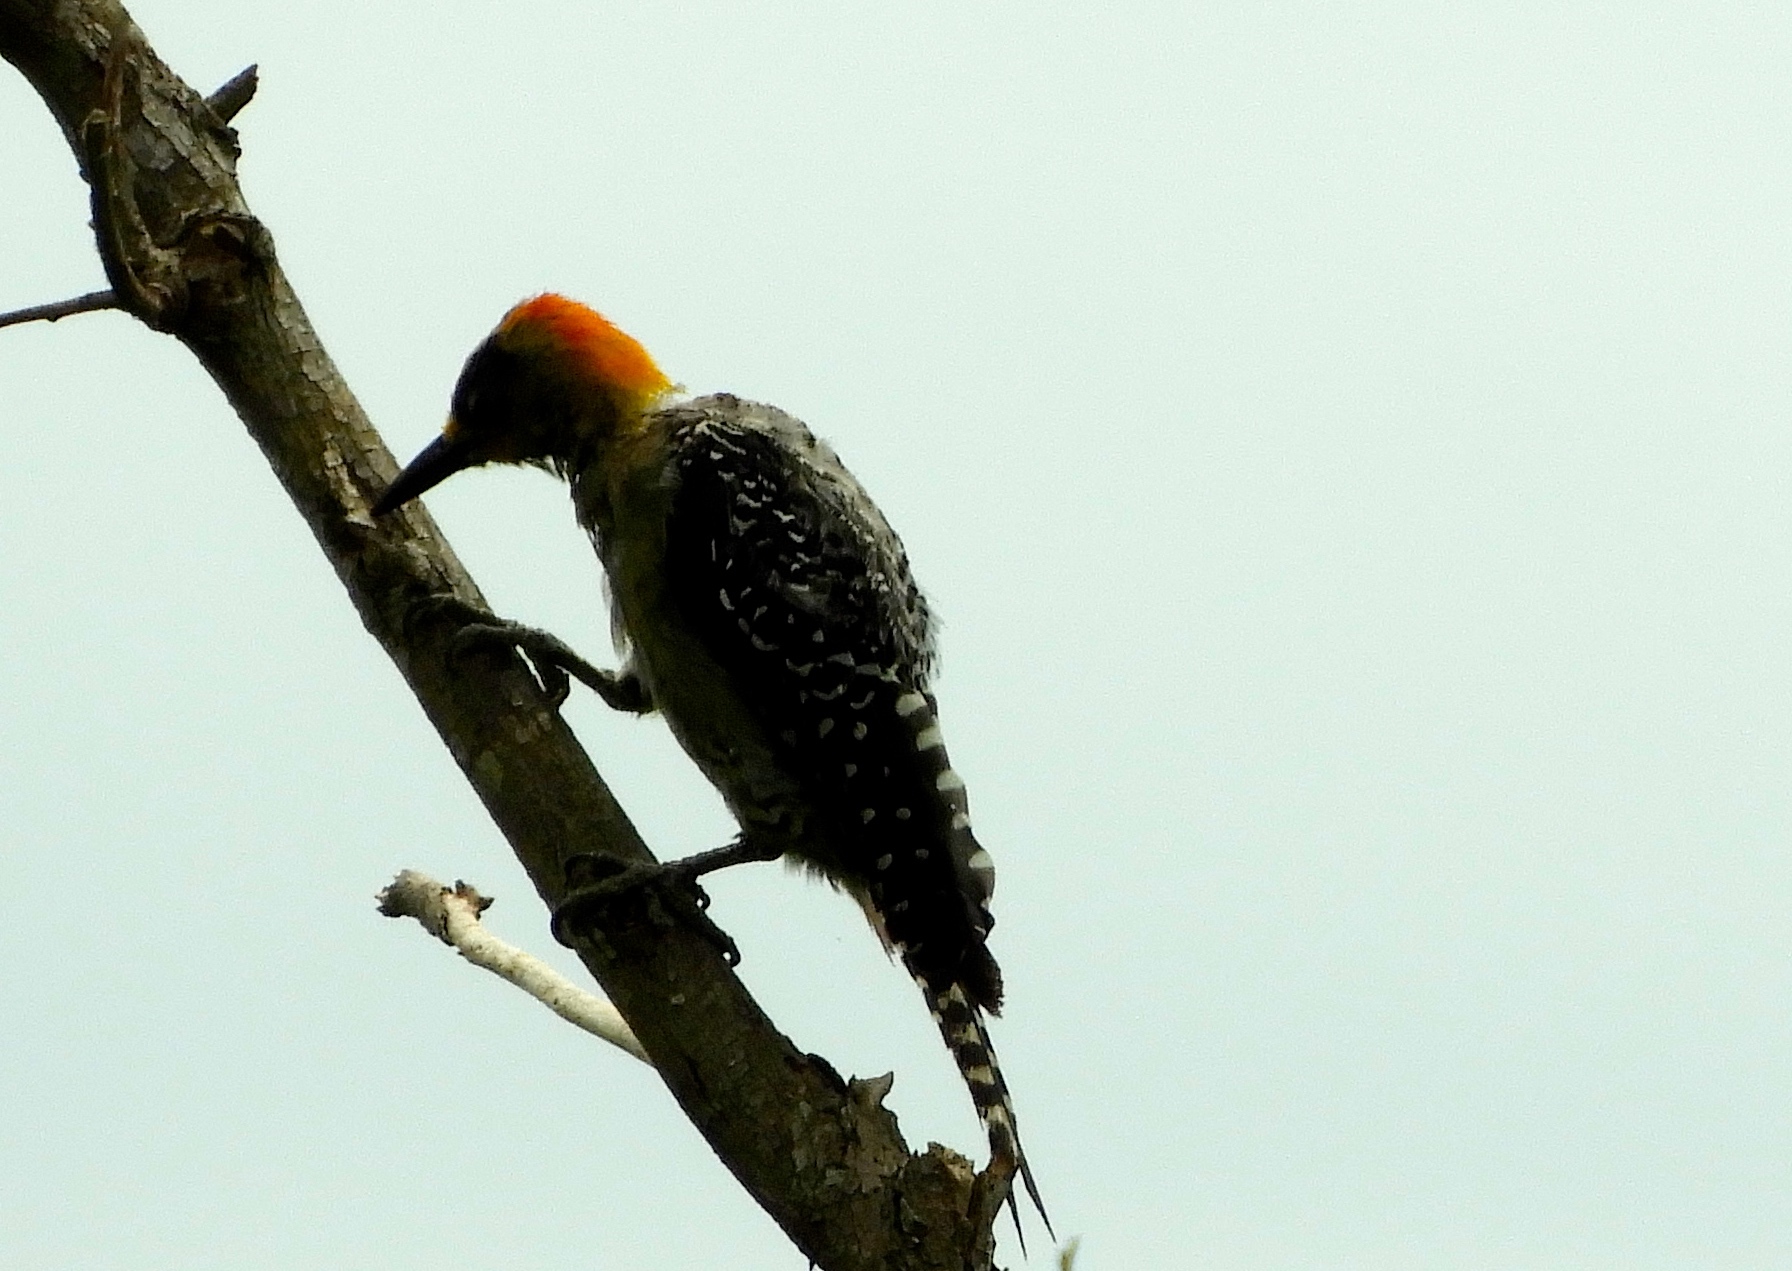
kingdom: Animalia
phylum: Chordata
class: Aves
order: Piciformes
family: Picidae
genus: Melanerpes
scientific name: Melanerpes chrysogenys
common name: Golden-cheeked woodpecker
